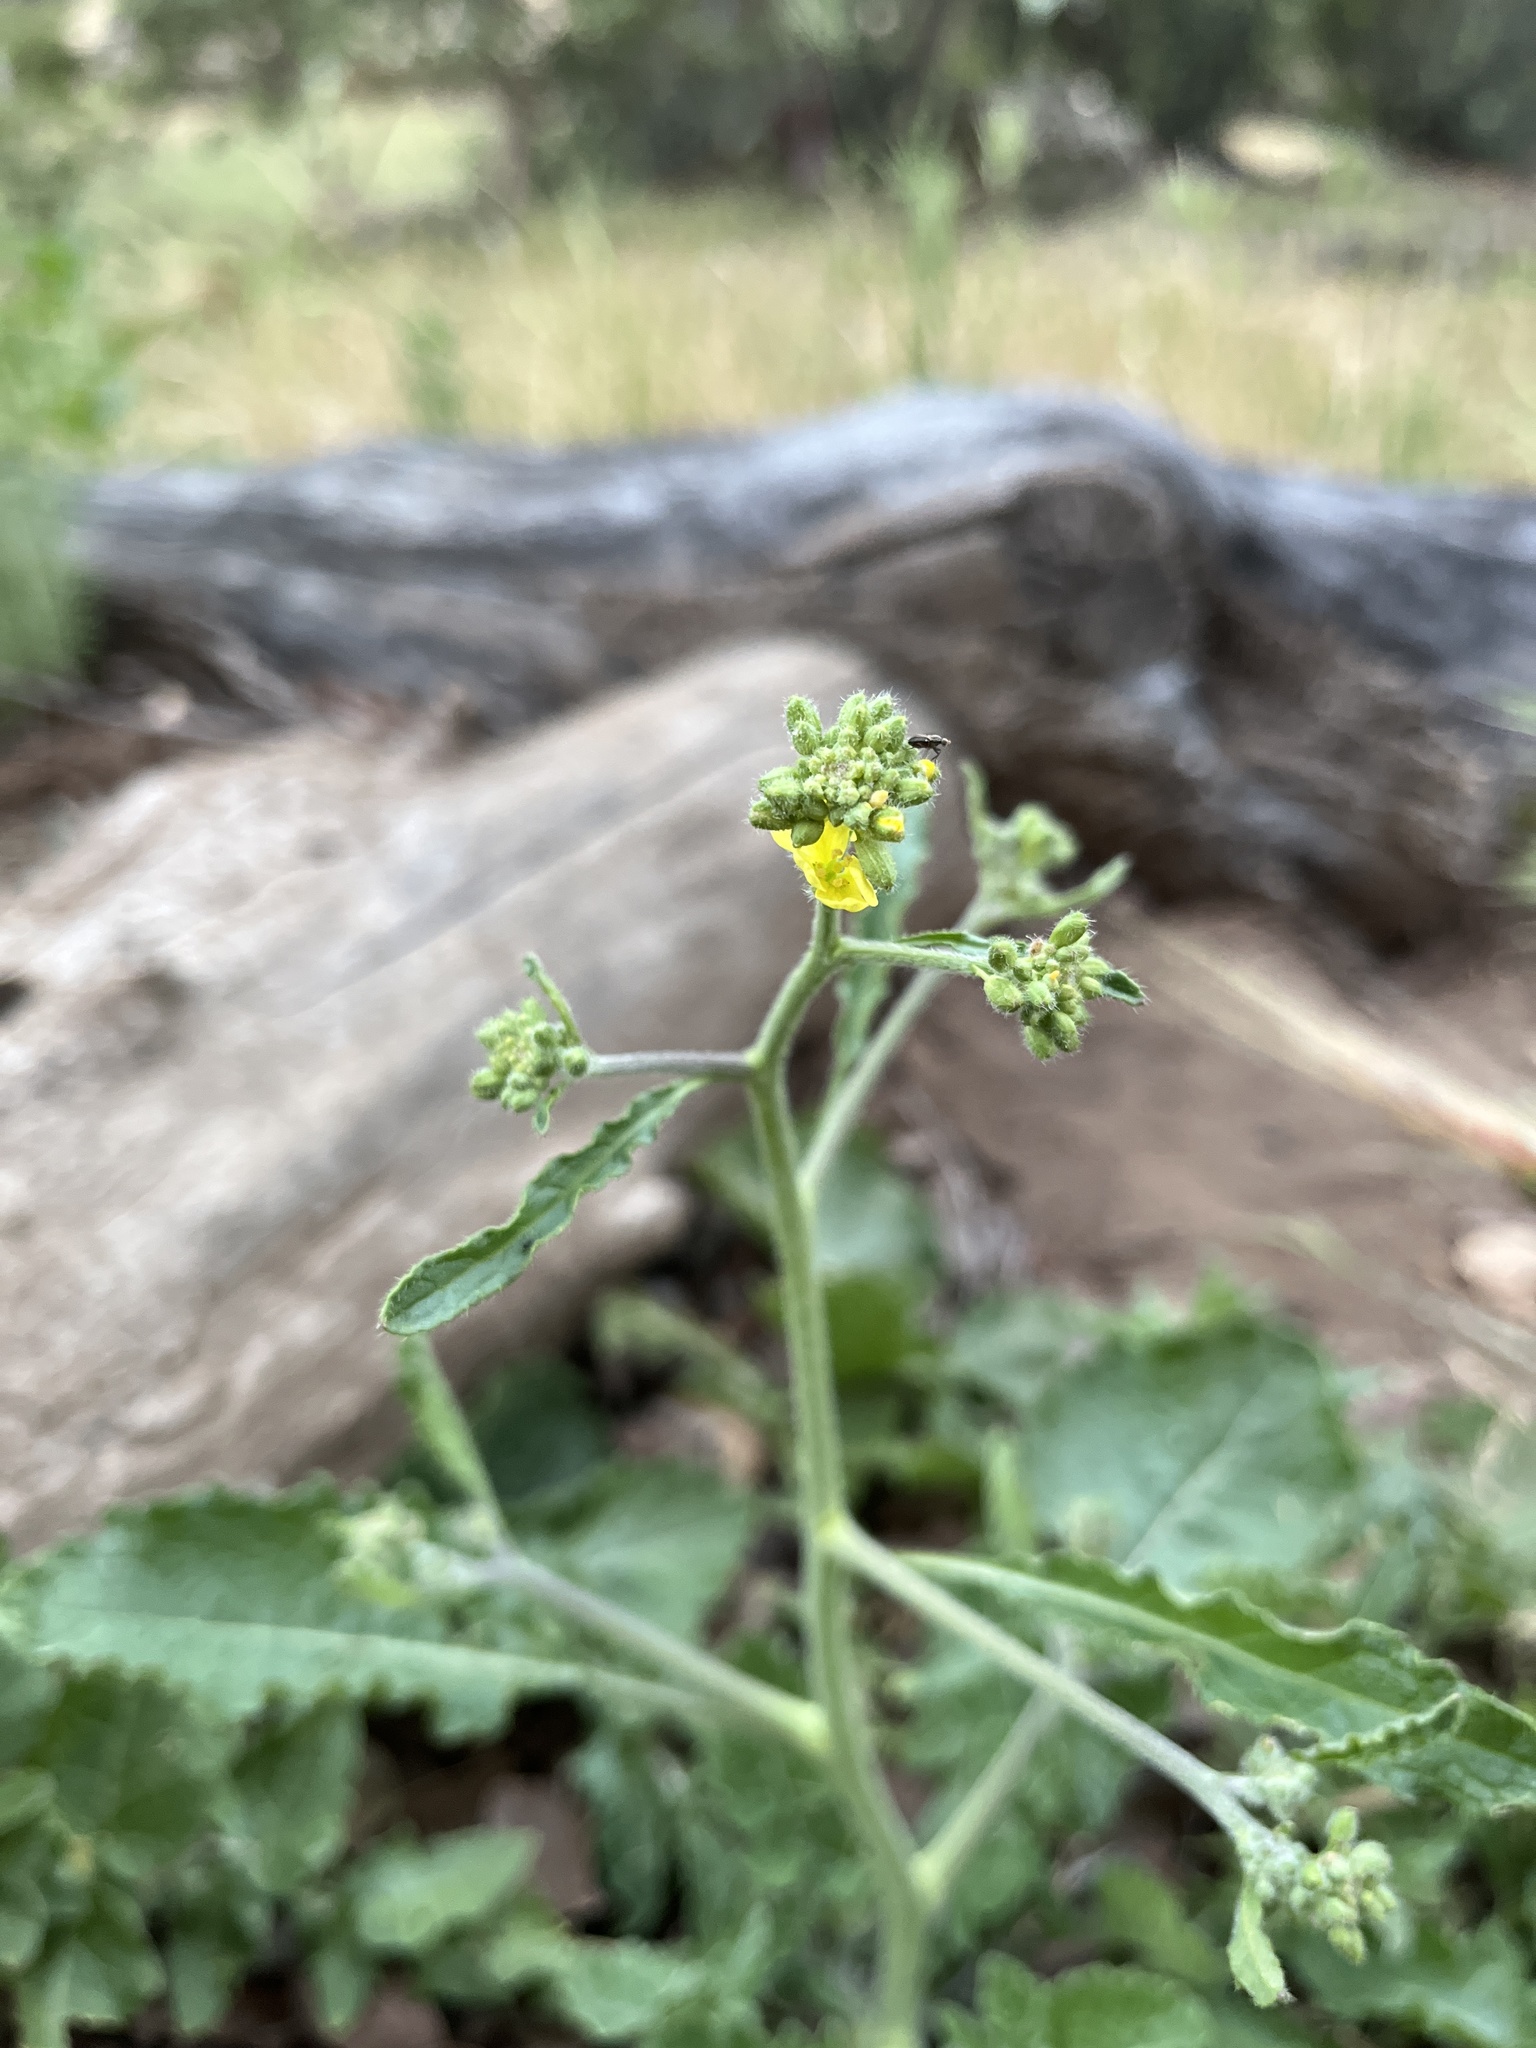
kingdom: Plantae
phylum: Tracheophyta
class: Magnoliopsida
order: Brassicales
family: Brassicaceae
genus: Hirschfeldia
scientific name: Hirschfeldia incana
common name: Hoary mustard
